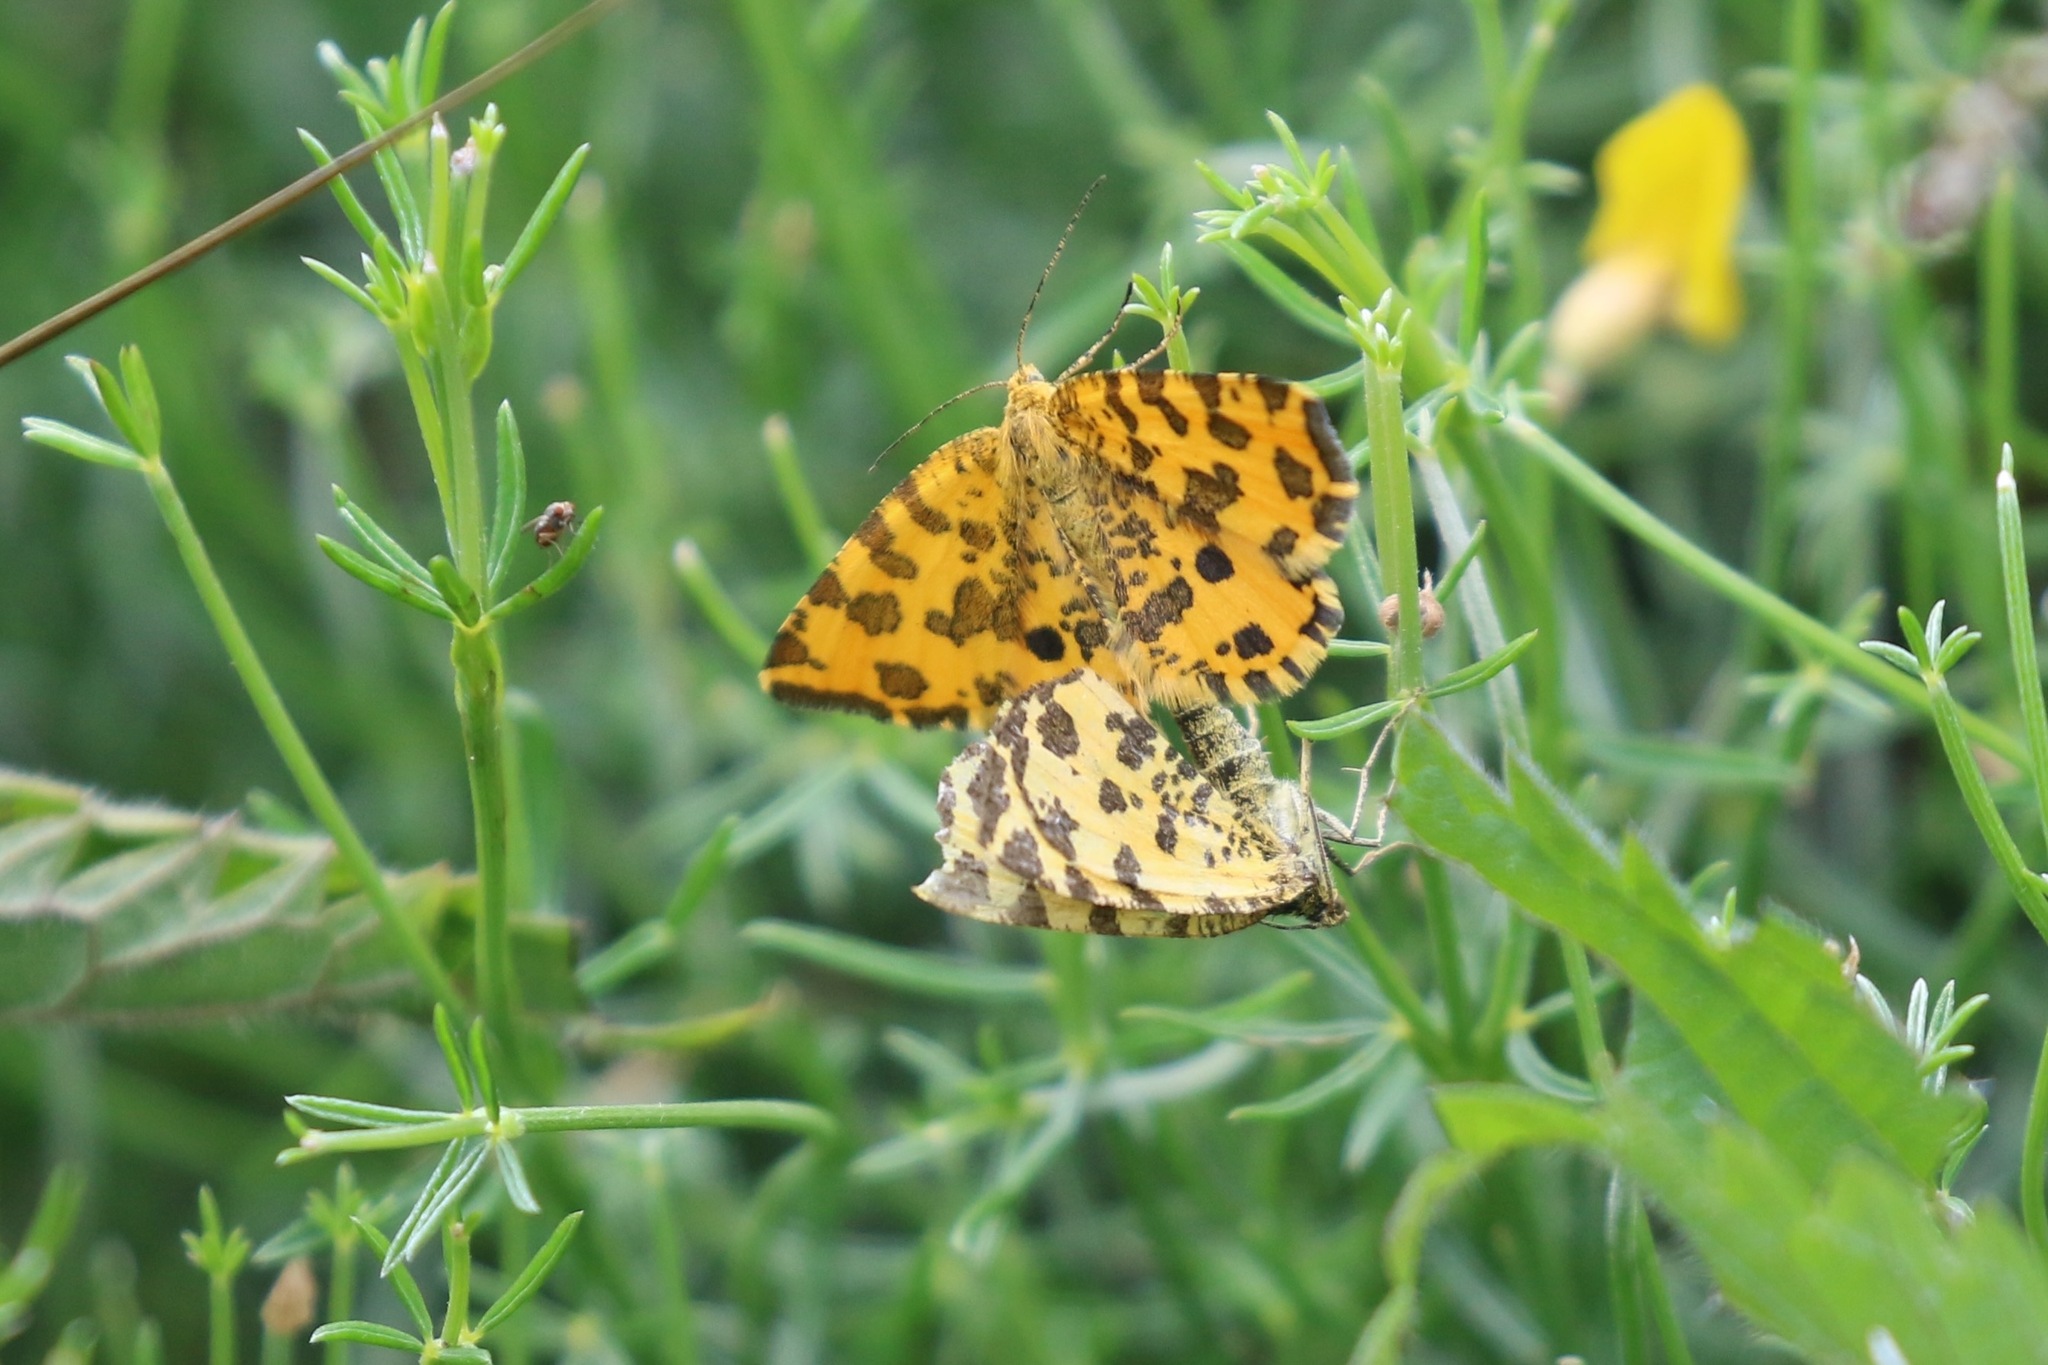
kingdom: Animalia
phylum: Arthropoda
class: Insecta
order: Lepidoptera
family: Geometridae
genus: Pseudopanthera
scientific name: Pseudopanthera macularia
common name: Speckled yellow
